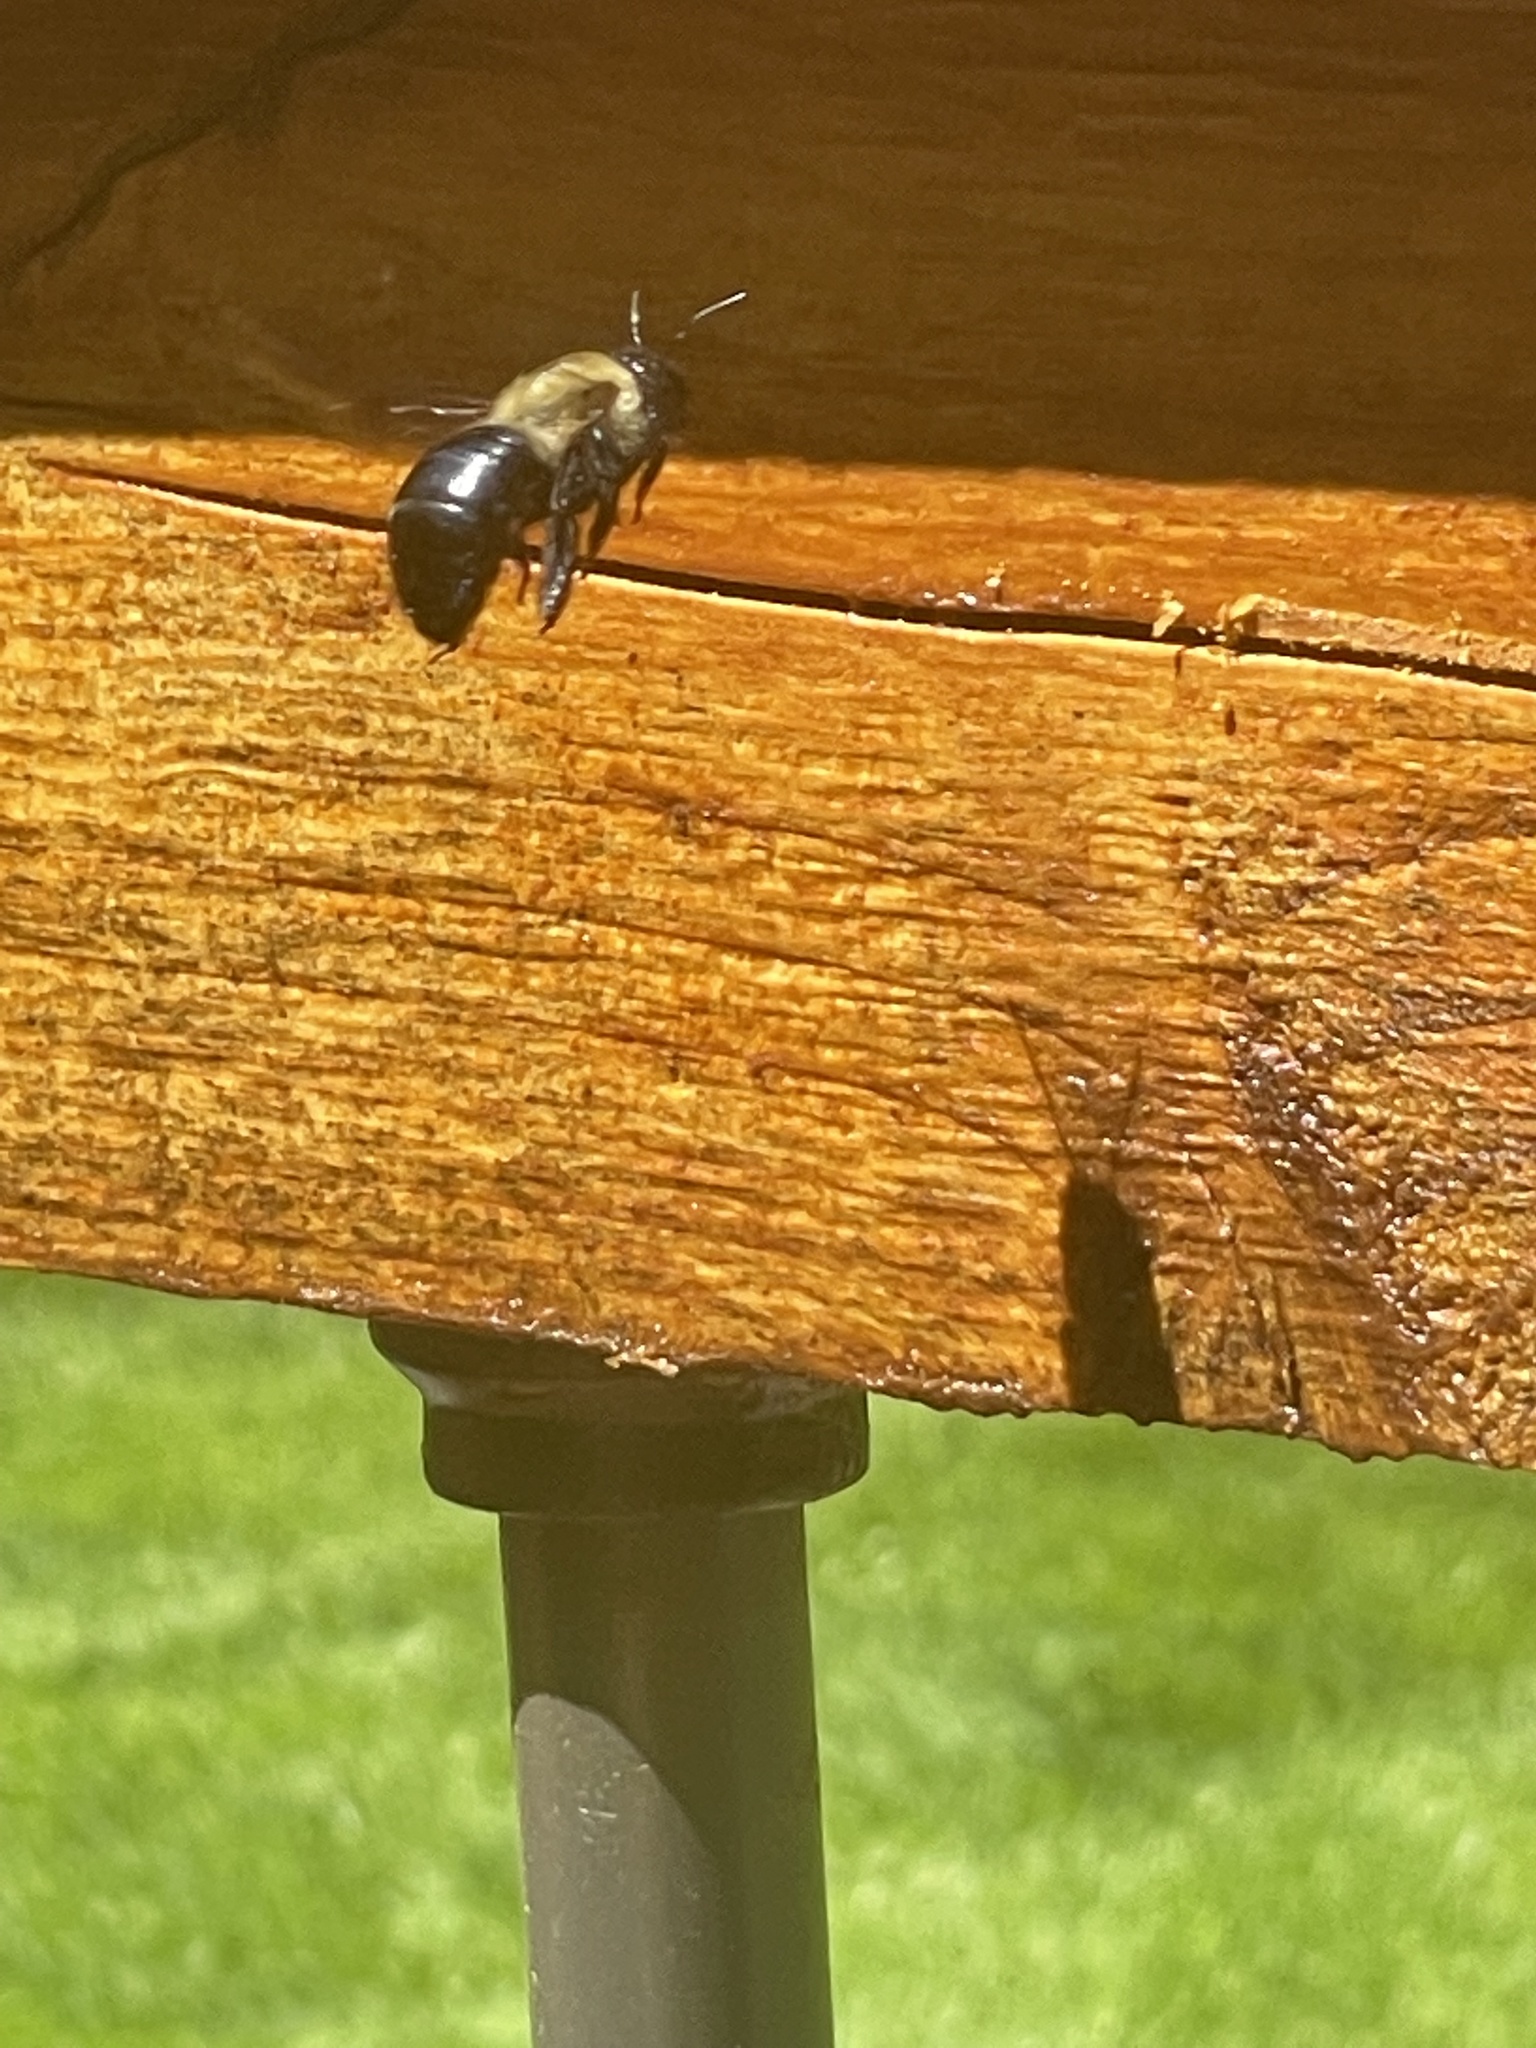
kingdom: Animalia
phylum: Arthropoda
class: Insecta
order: Hymenoptera
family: Apidae
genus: Xylocopa
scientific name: Xylocopa virginica
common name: Carpenter bee
